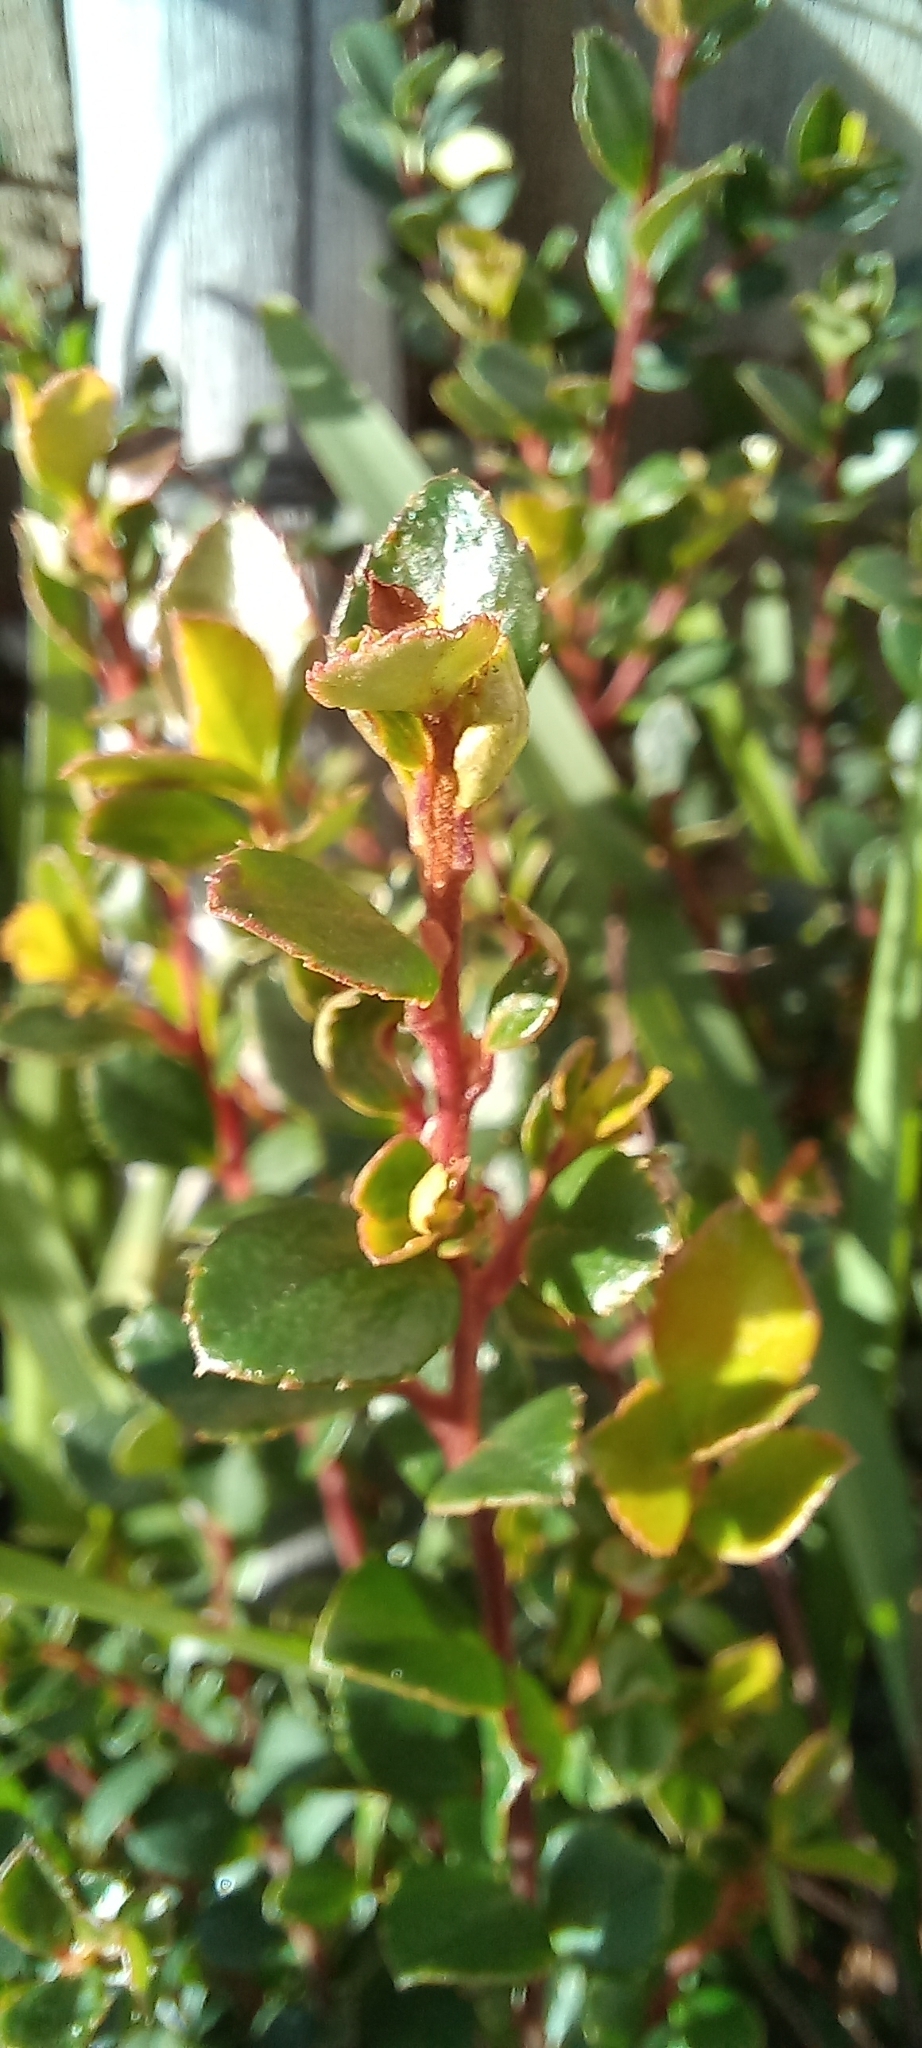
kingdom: Plantae
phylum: Tracheophyta
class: Magnoliopsida
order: Ericales
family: Primulaceae
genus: Myrsine
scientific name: Myrsine africana
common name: African-boxwood
